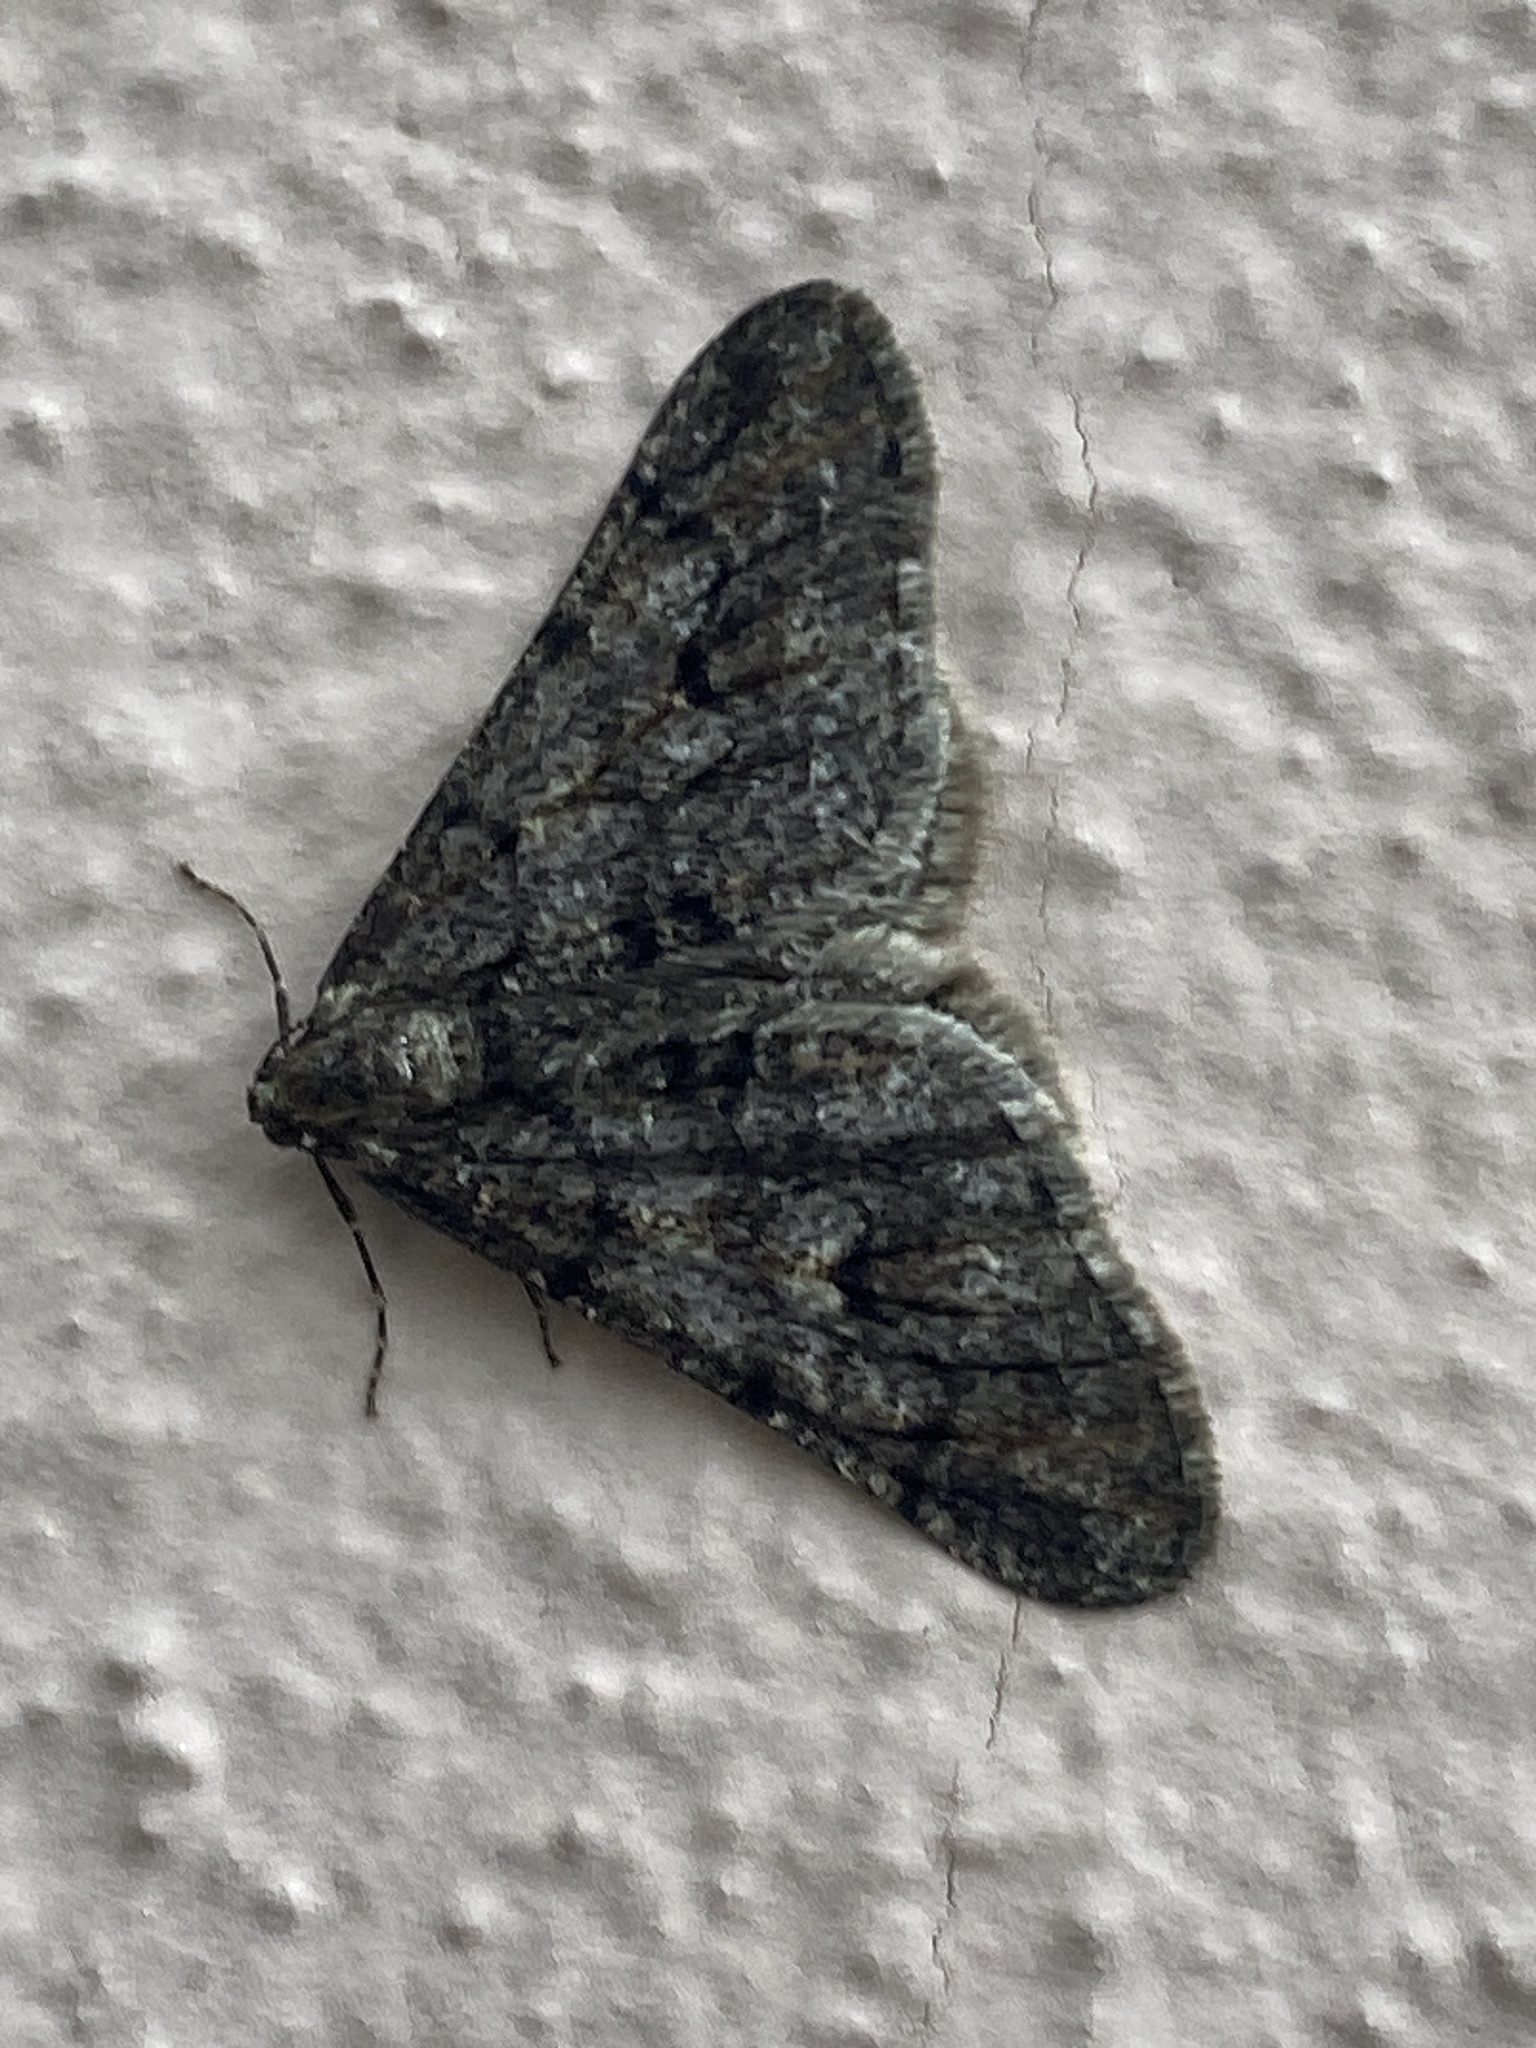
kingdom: Animalia
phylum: Arthropoda
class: Insecta
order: Lepidoptera
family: Geometridae
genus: Agriopis
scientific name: Agriopis leucophaearia
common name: Spring usher
